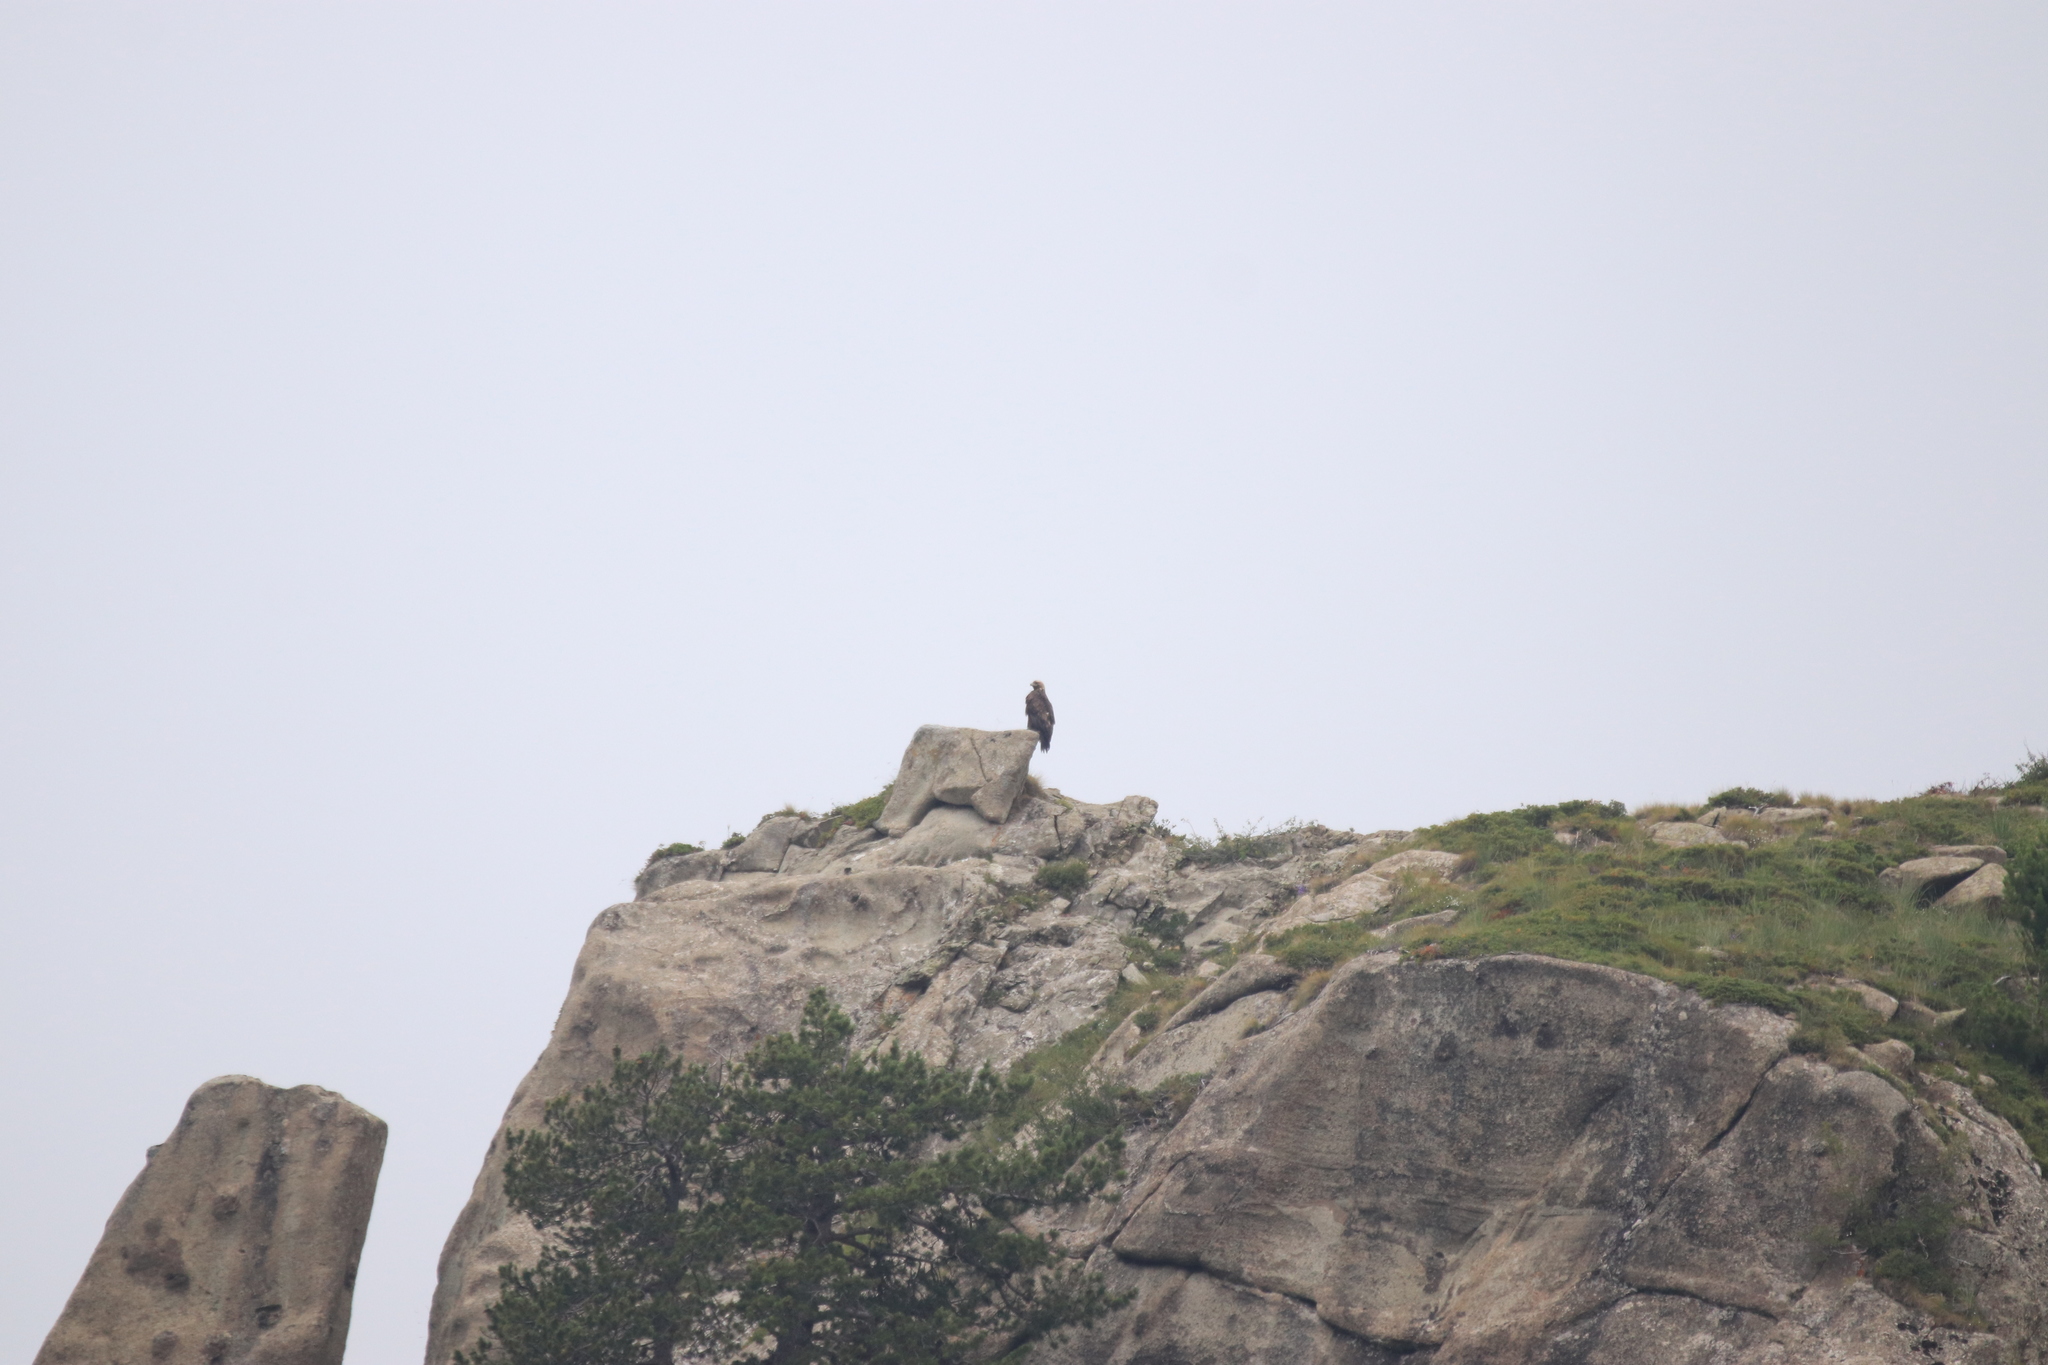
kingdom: Animalia
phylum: Chordata
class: Aves
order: Accipitriformes
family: Accipitridae
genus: Aquila
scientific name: Aquila chrysaetos
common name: Golden eagle
